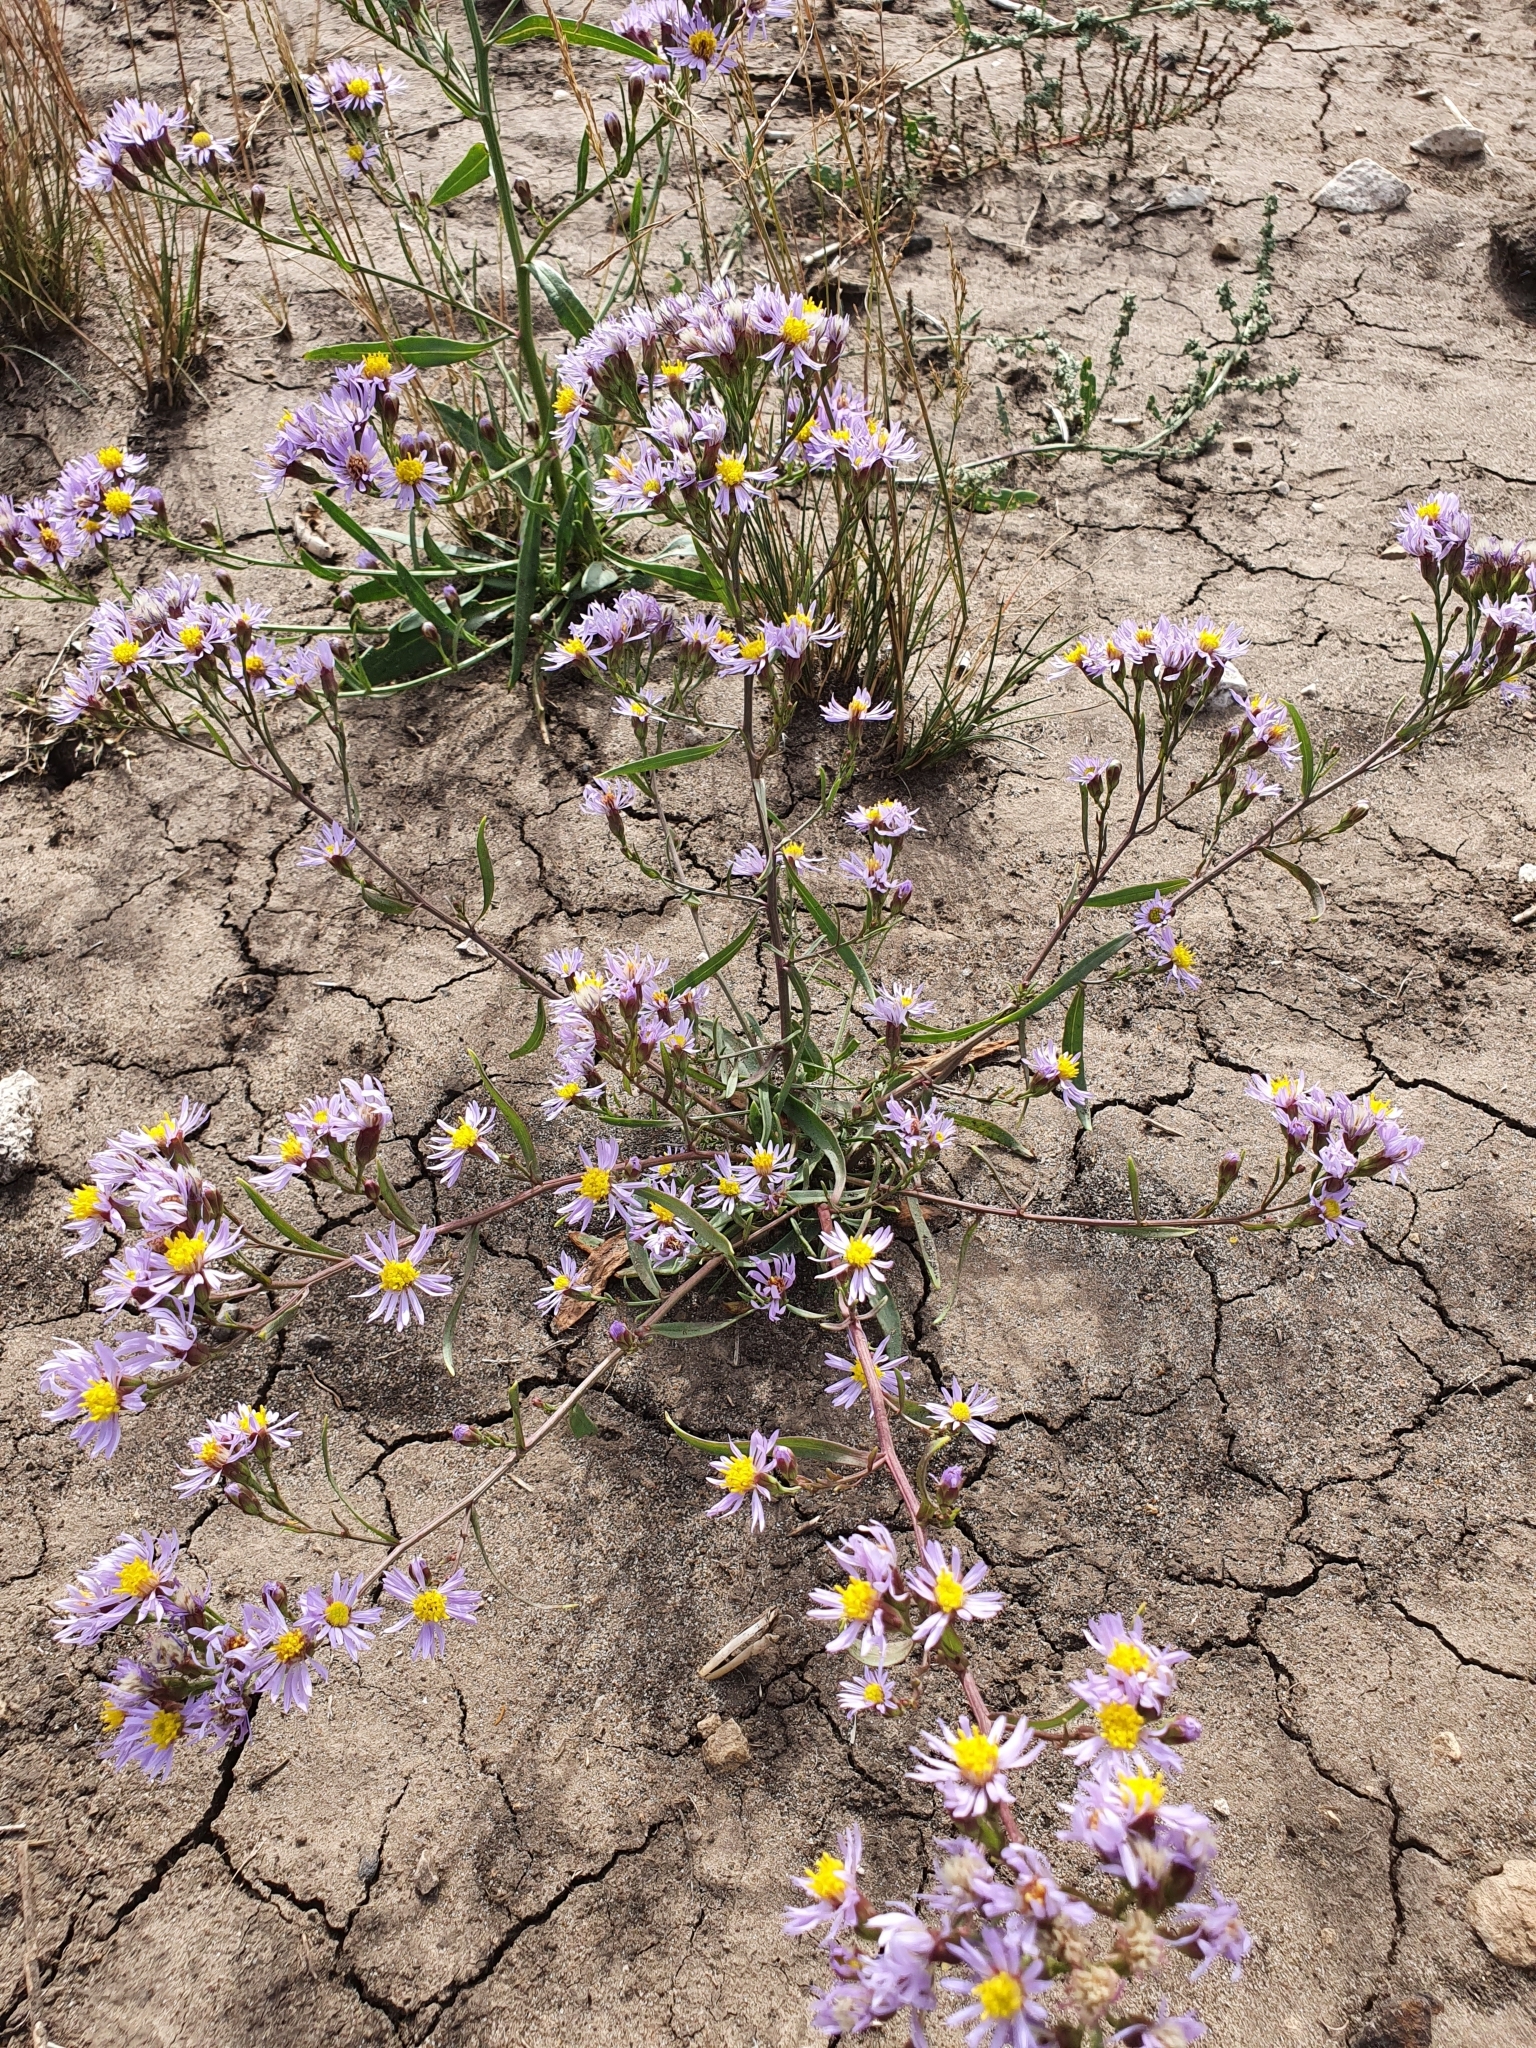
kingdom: Plantae
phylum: Tracheophyta
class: Magnoliopsida
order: Asterales
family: Asteraceae
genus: Tripolium
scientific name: Tripolium pannonicum
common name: Sea aster
